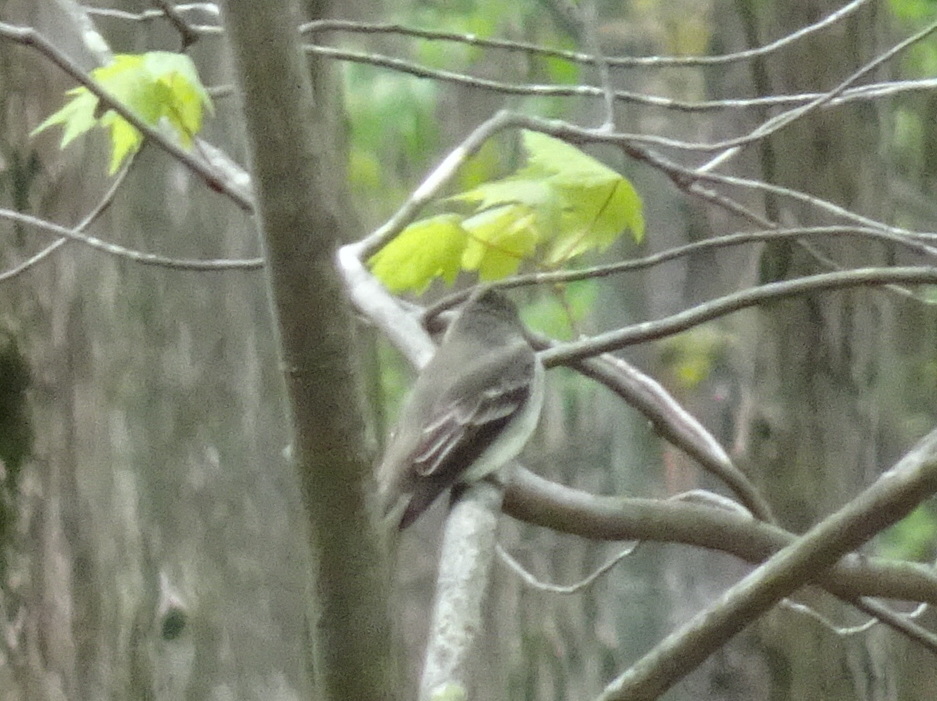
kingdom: Animalia
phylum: Chordata
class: Aves
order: Passeriformes
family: Tyrannidae
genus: Contopus
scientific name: Contopus virens
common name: Eastern wood-pewee
